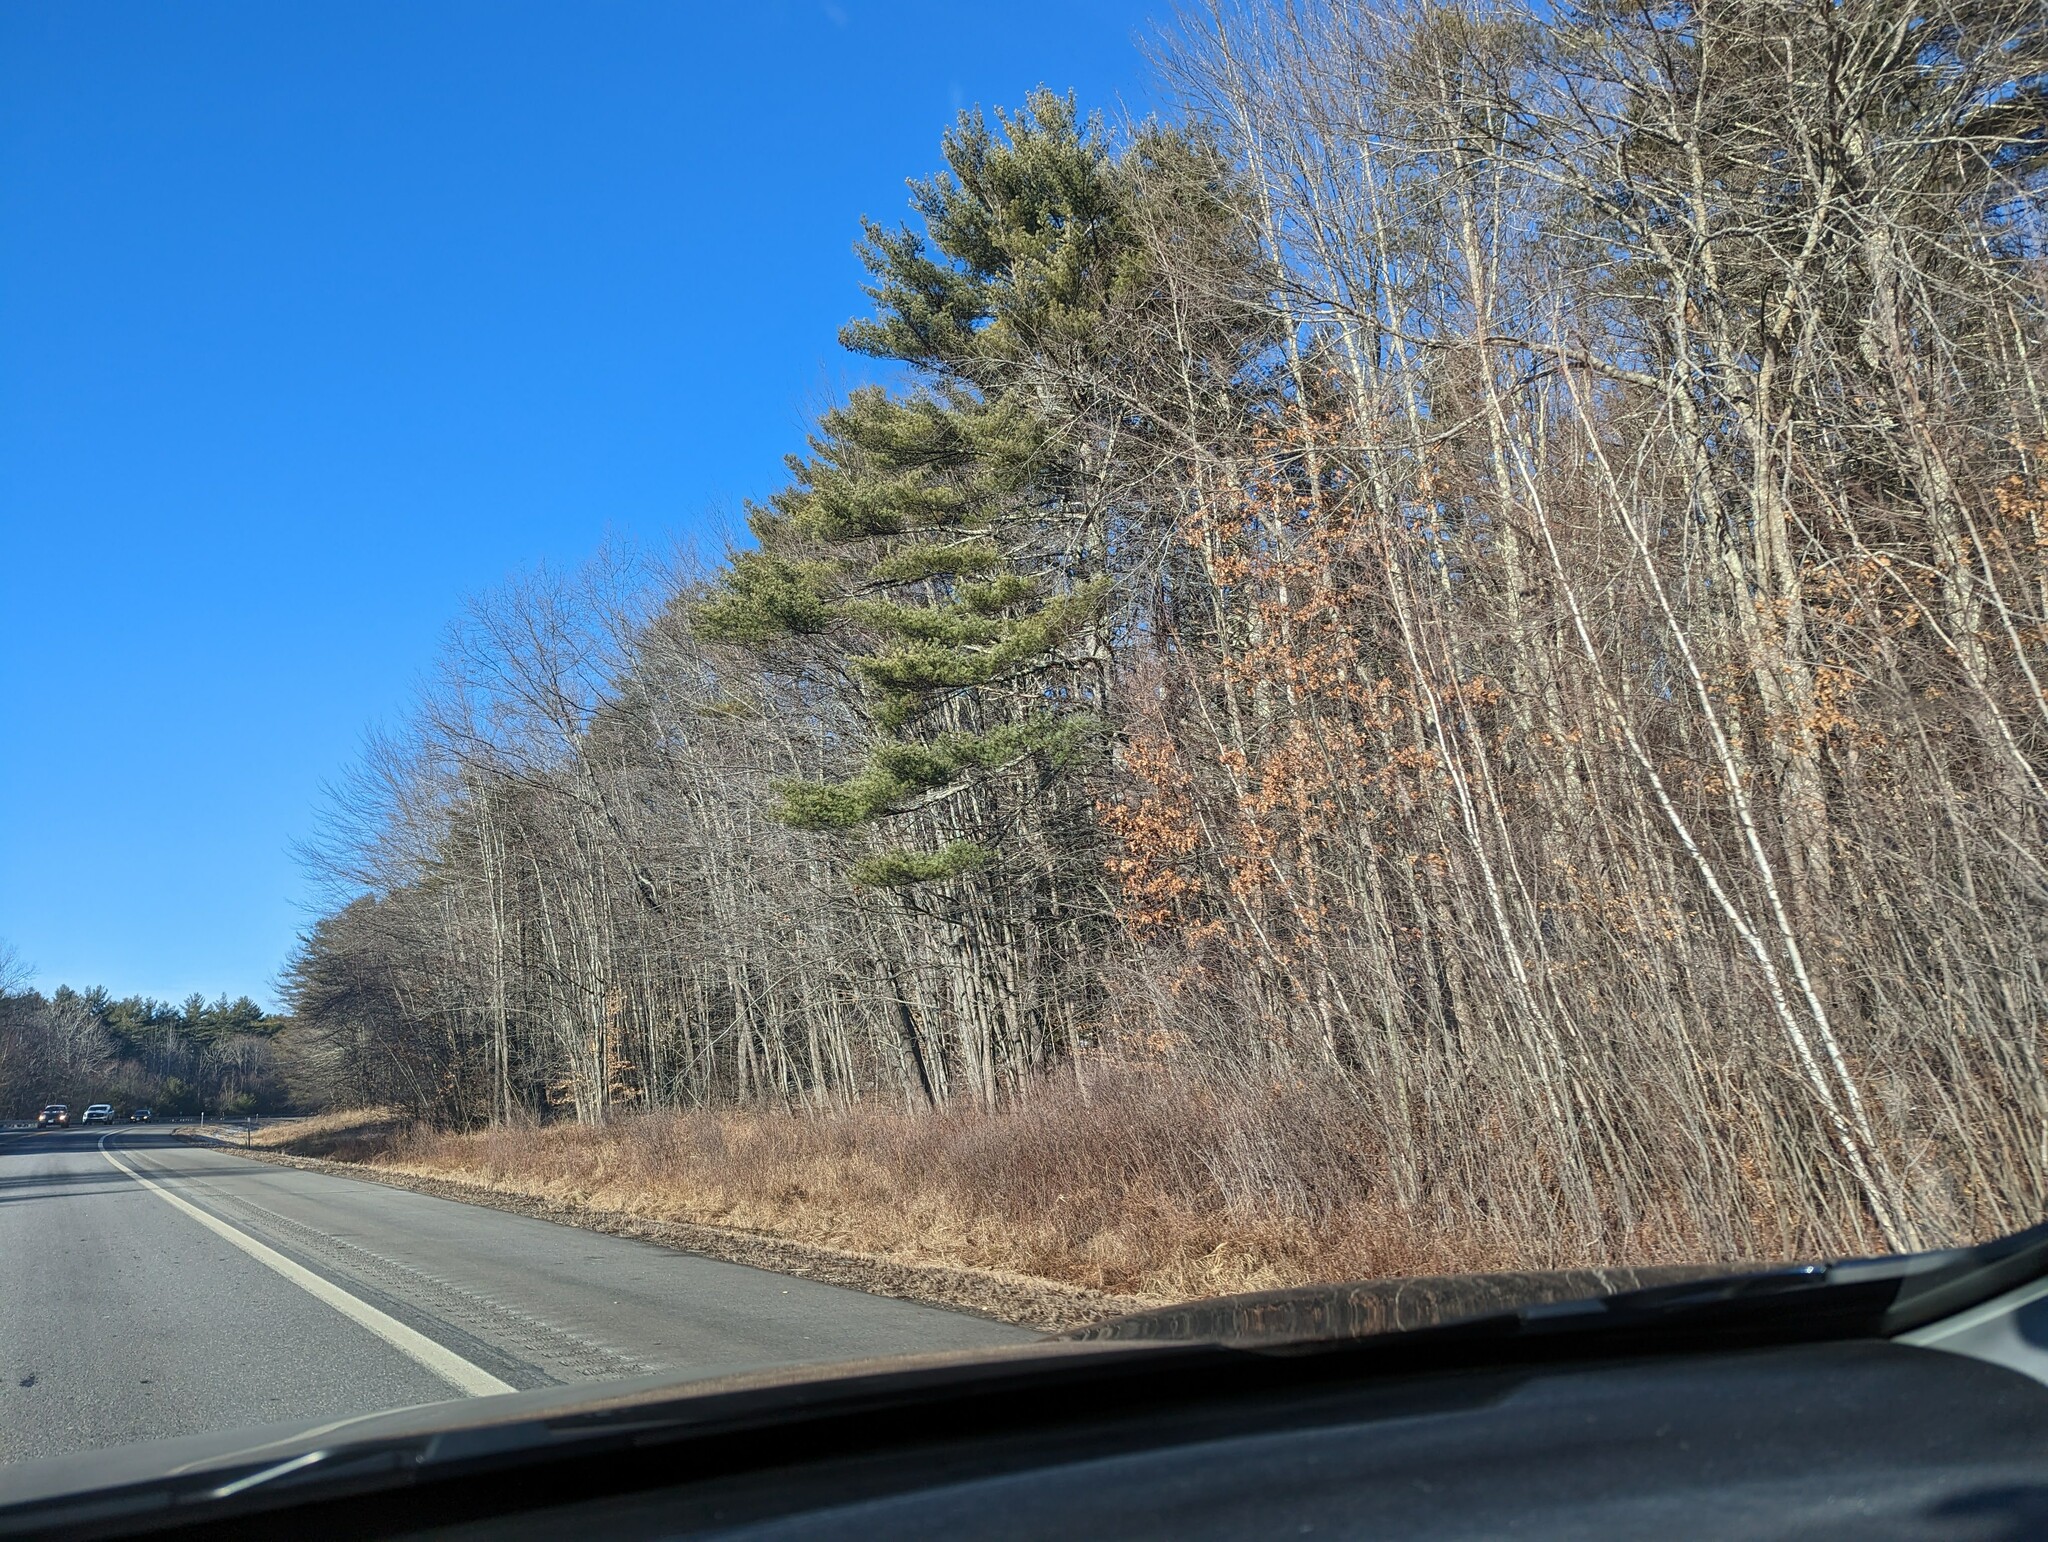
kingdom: Plantae
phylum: Tracheophyta
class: Pinopsida
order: Pinales
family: Pinaceae
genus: Pinus
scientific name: Pinus strobus
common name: Weymouth pine
